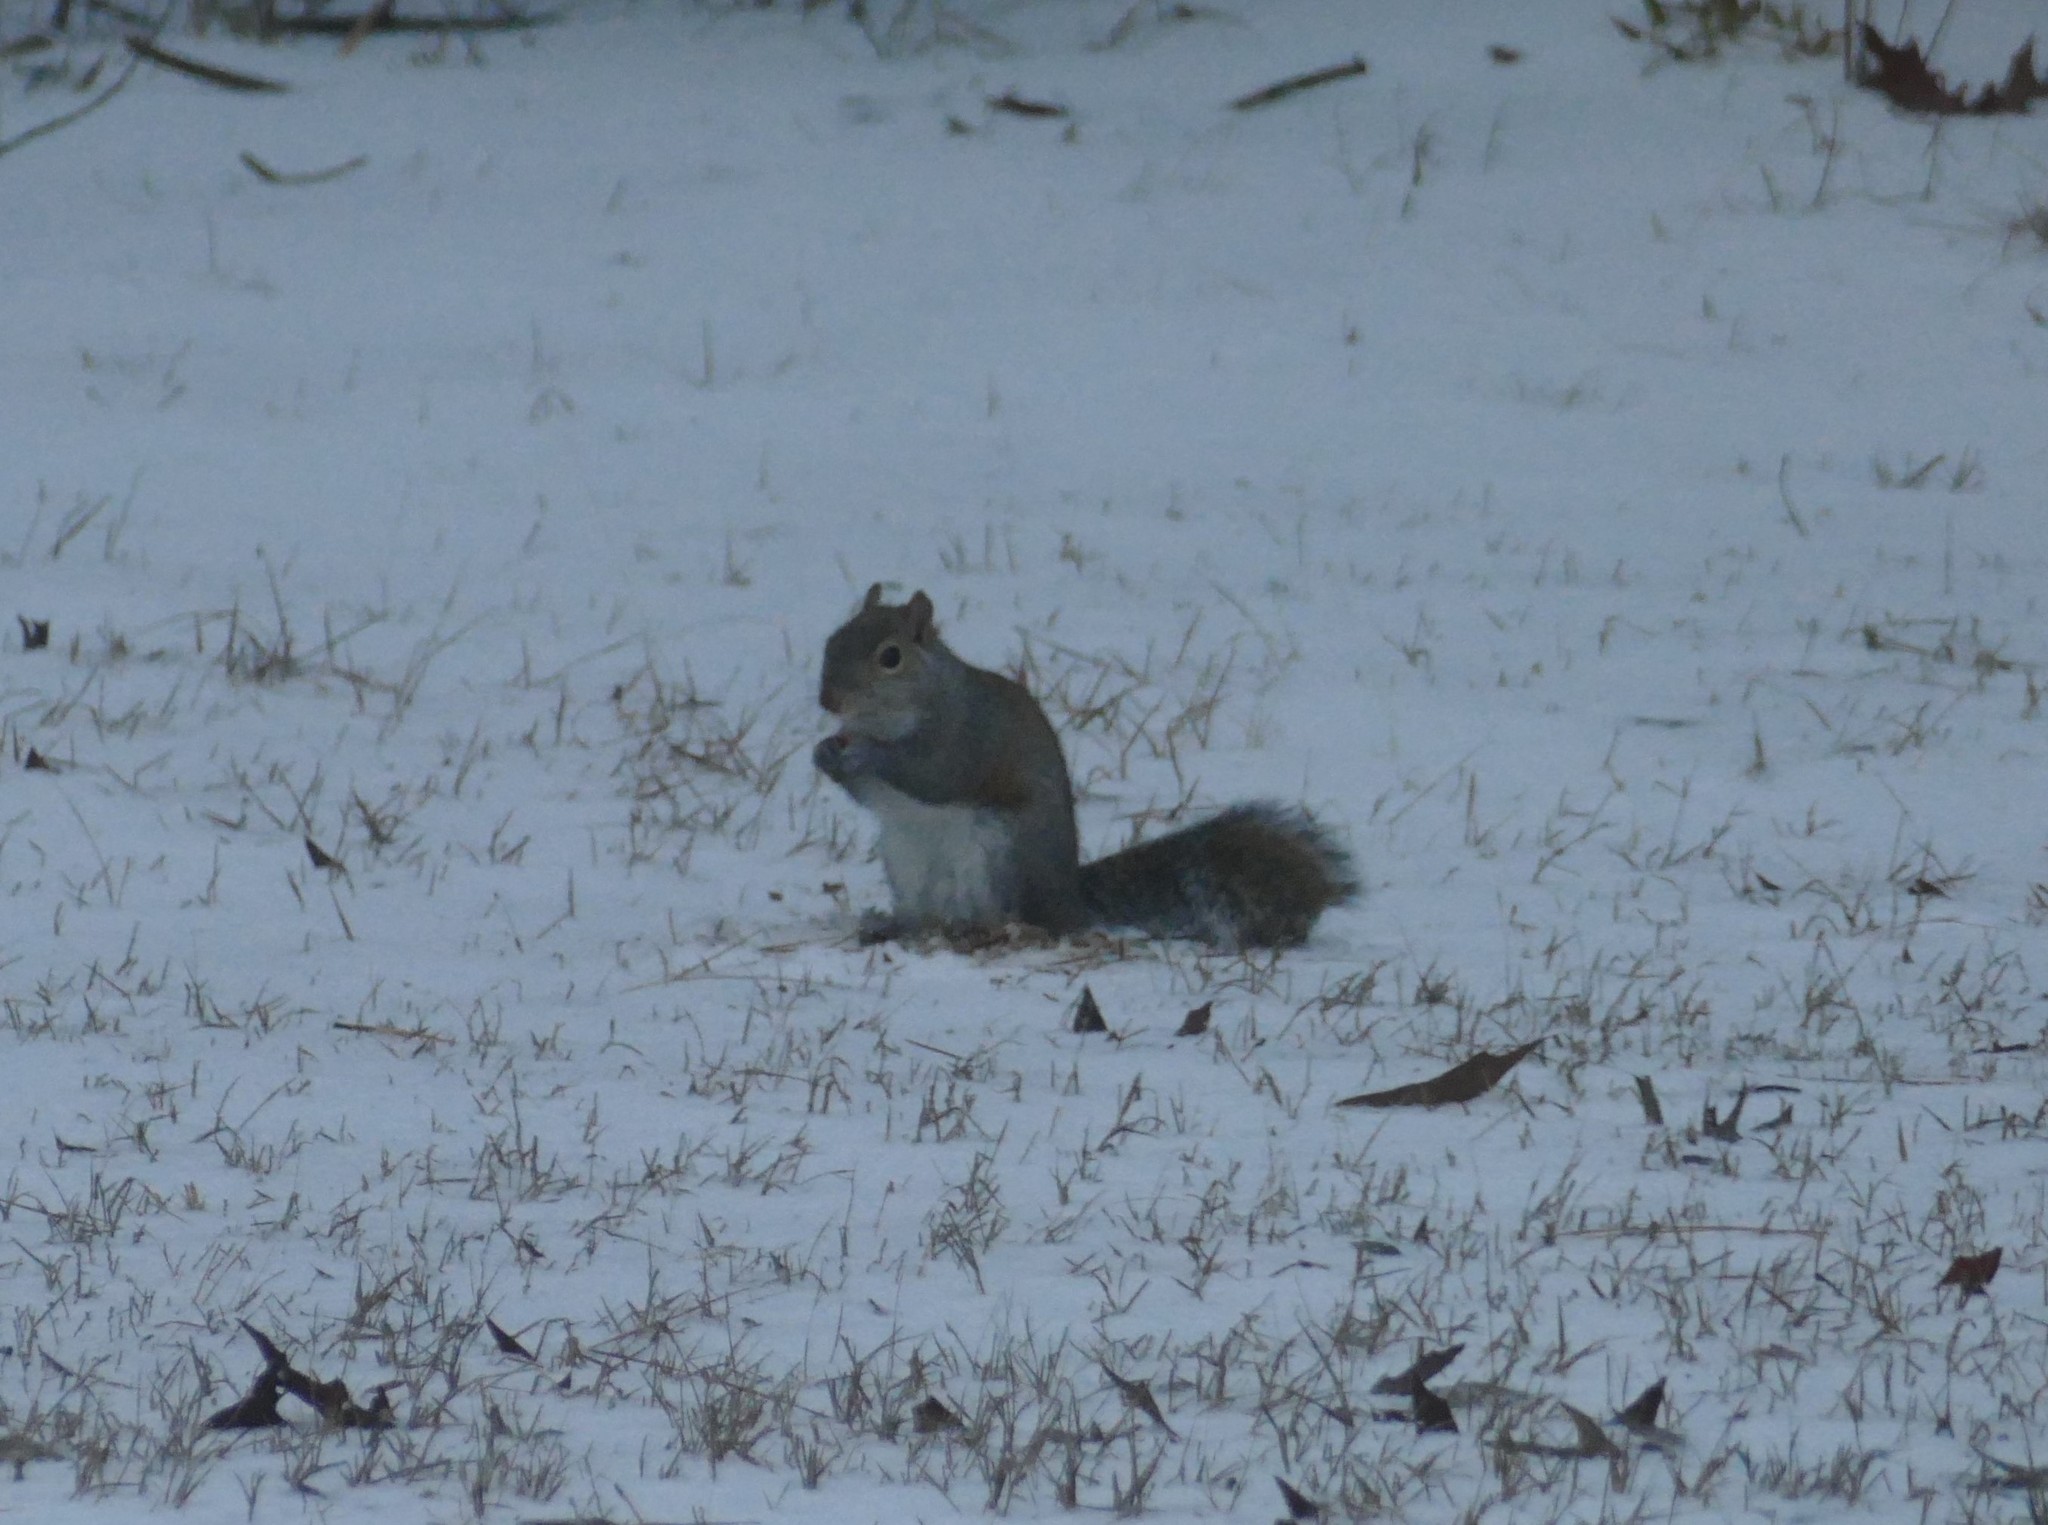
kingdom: Animalia
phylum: Chordata
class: Mammalia
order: Rodentia
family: Sciuridae
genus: Sciurus
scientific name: Sciurus carolinensis
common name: Eastern gray squirrel
